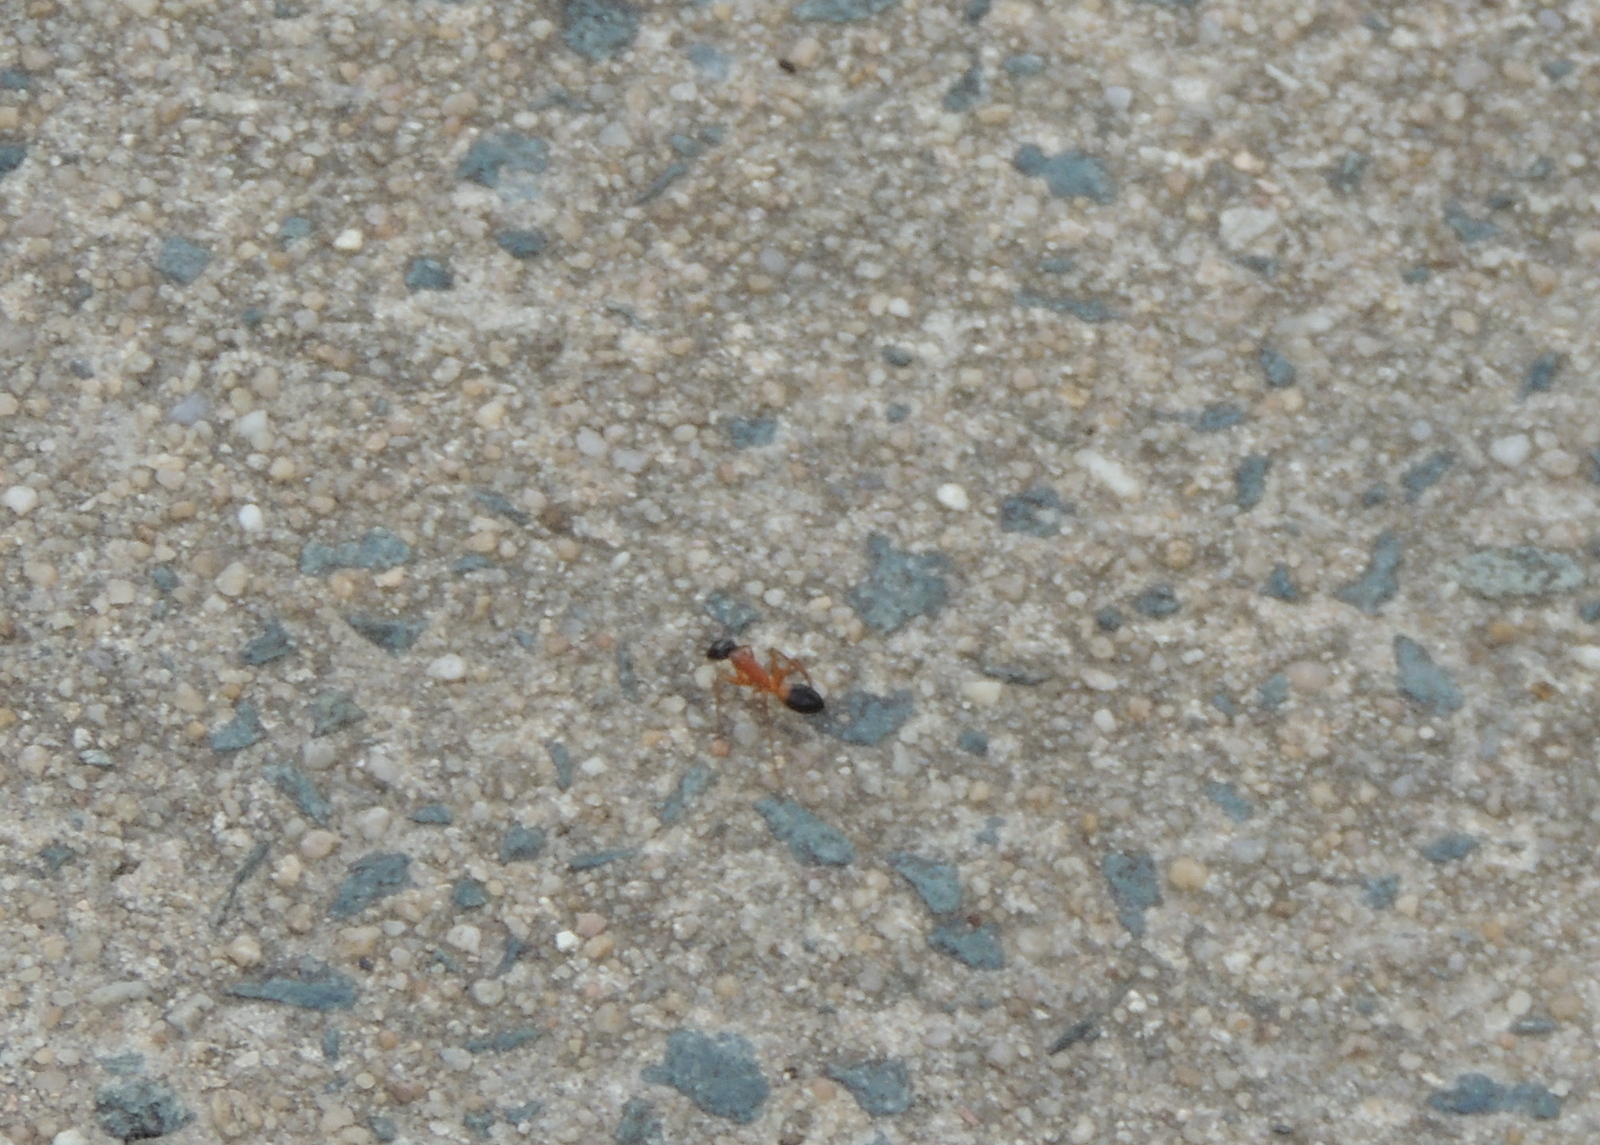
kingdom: Animalia
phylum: Arthropoda
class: Insecta
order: Hymenoptera
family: Formicidae
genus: Camponotus
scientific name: Camponotus consobrinus
